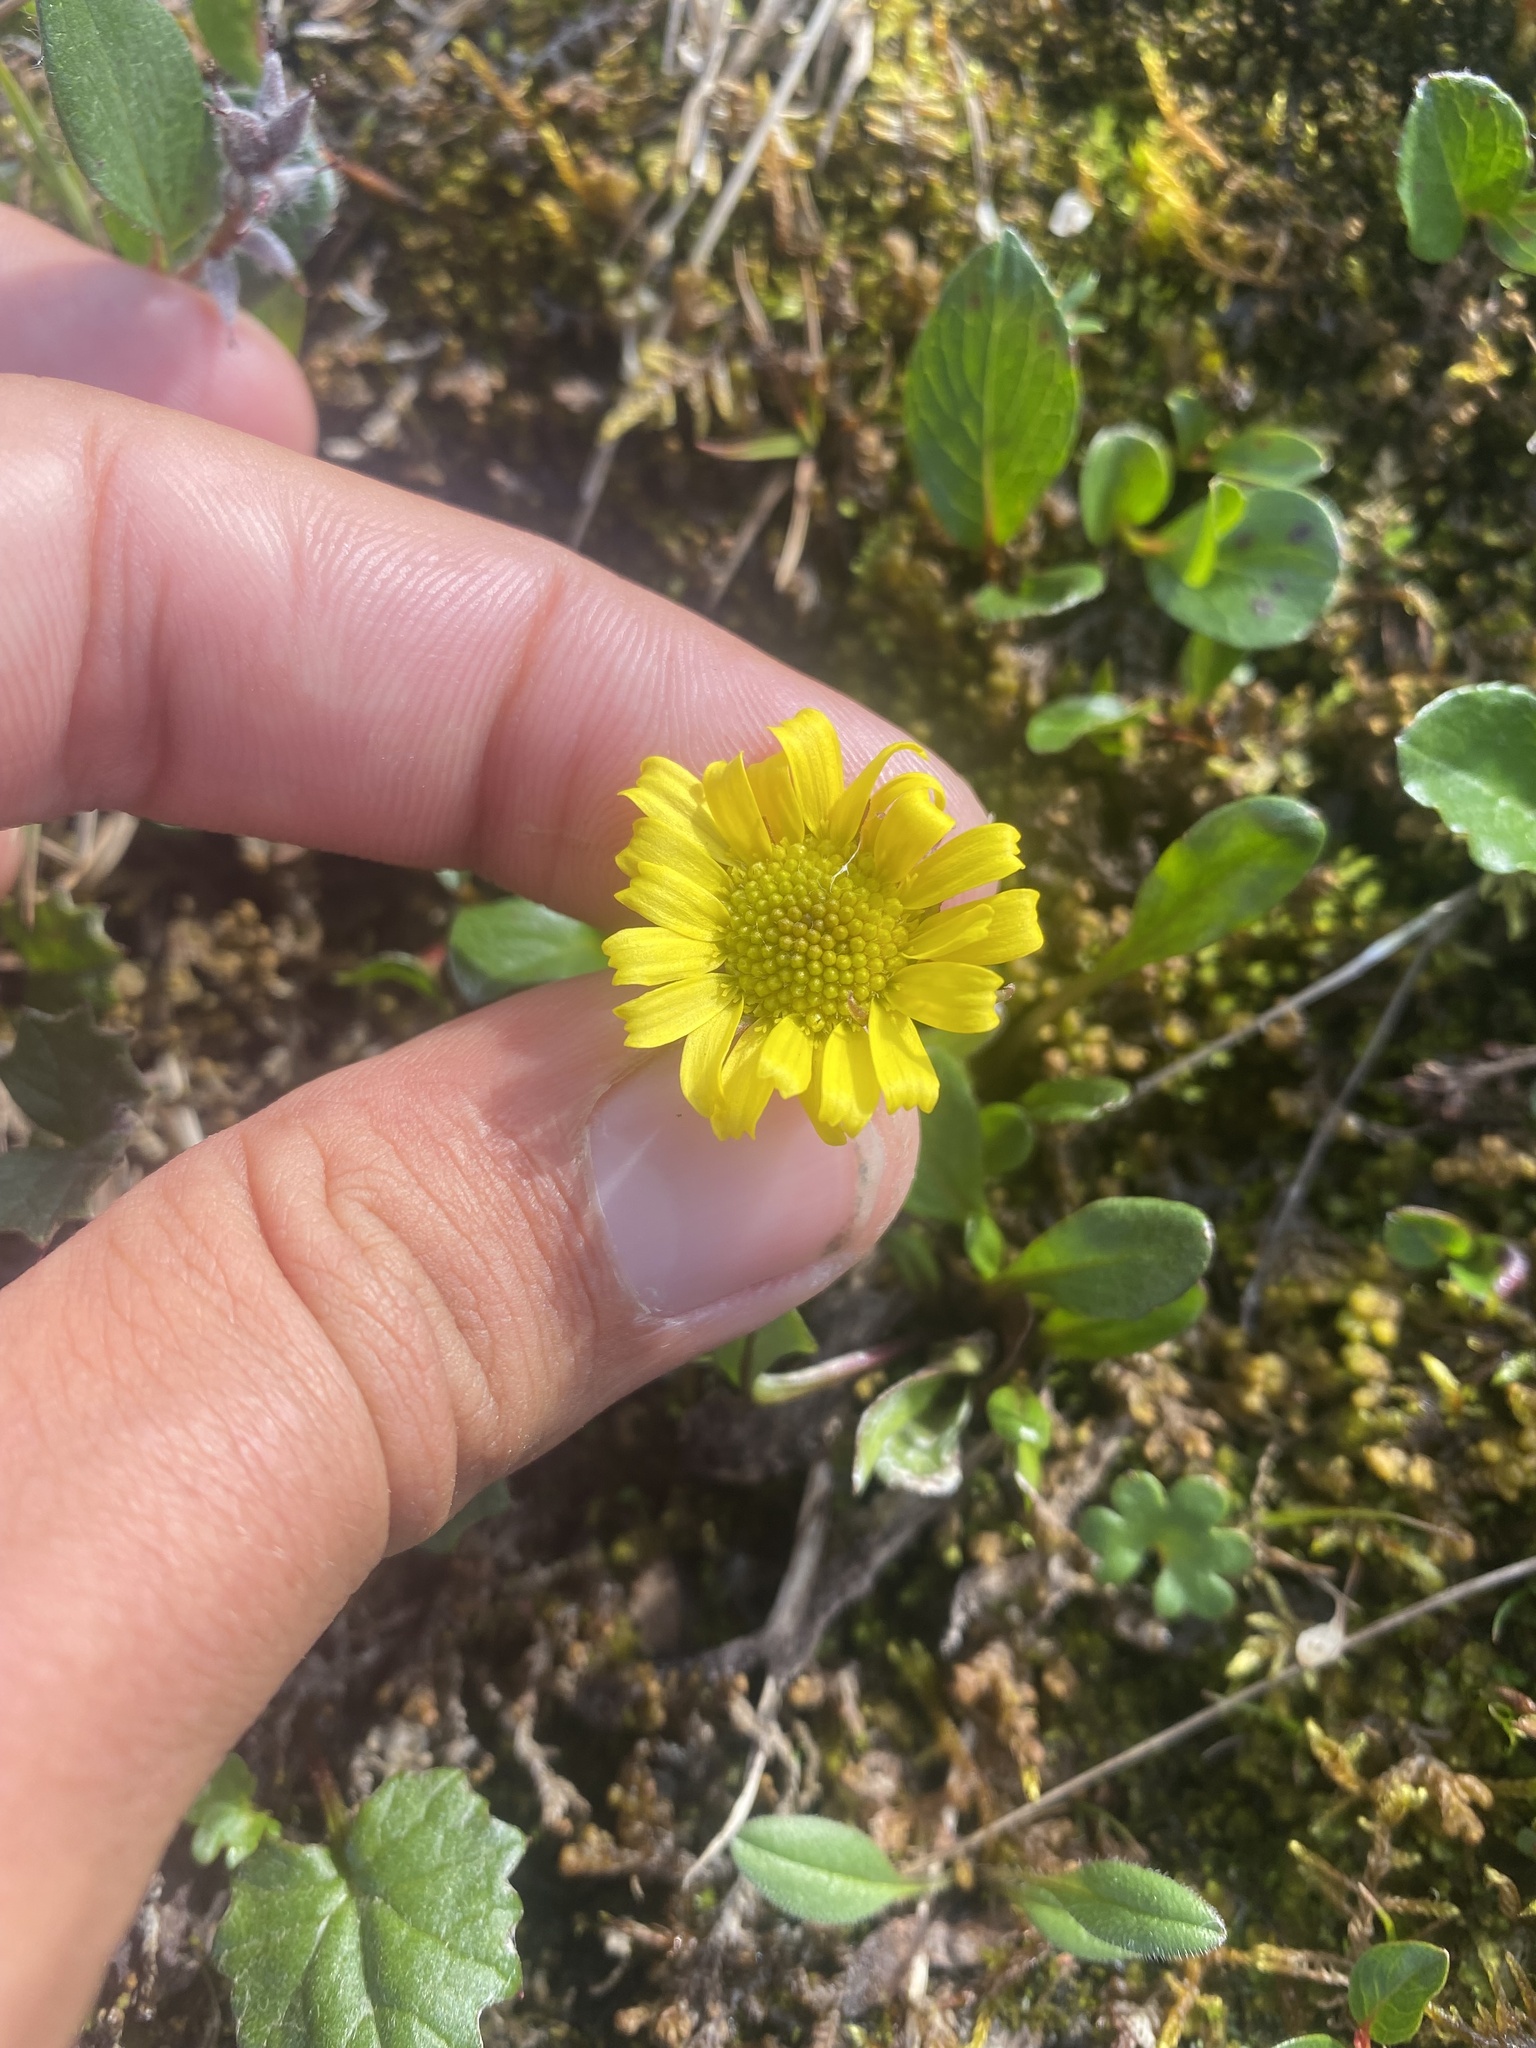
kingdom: Plantae
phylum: Tracheophyta
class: Magnoliopsida
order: Asterales
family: Asteraceae
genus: Tephroseris
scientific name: Tephroseris integrifolia
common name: Field fleawort
